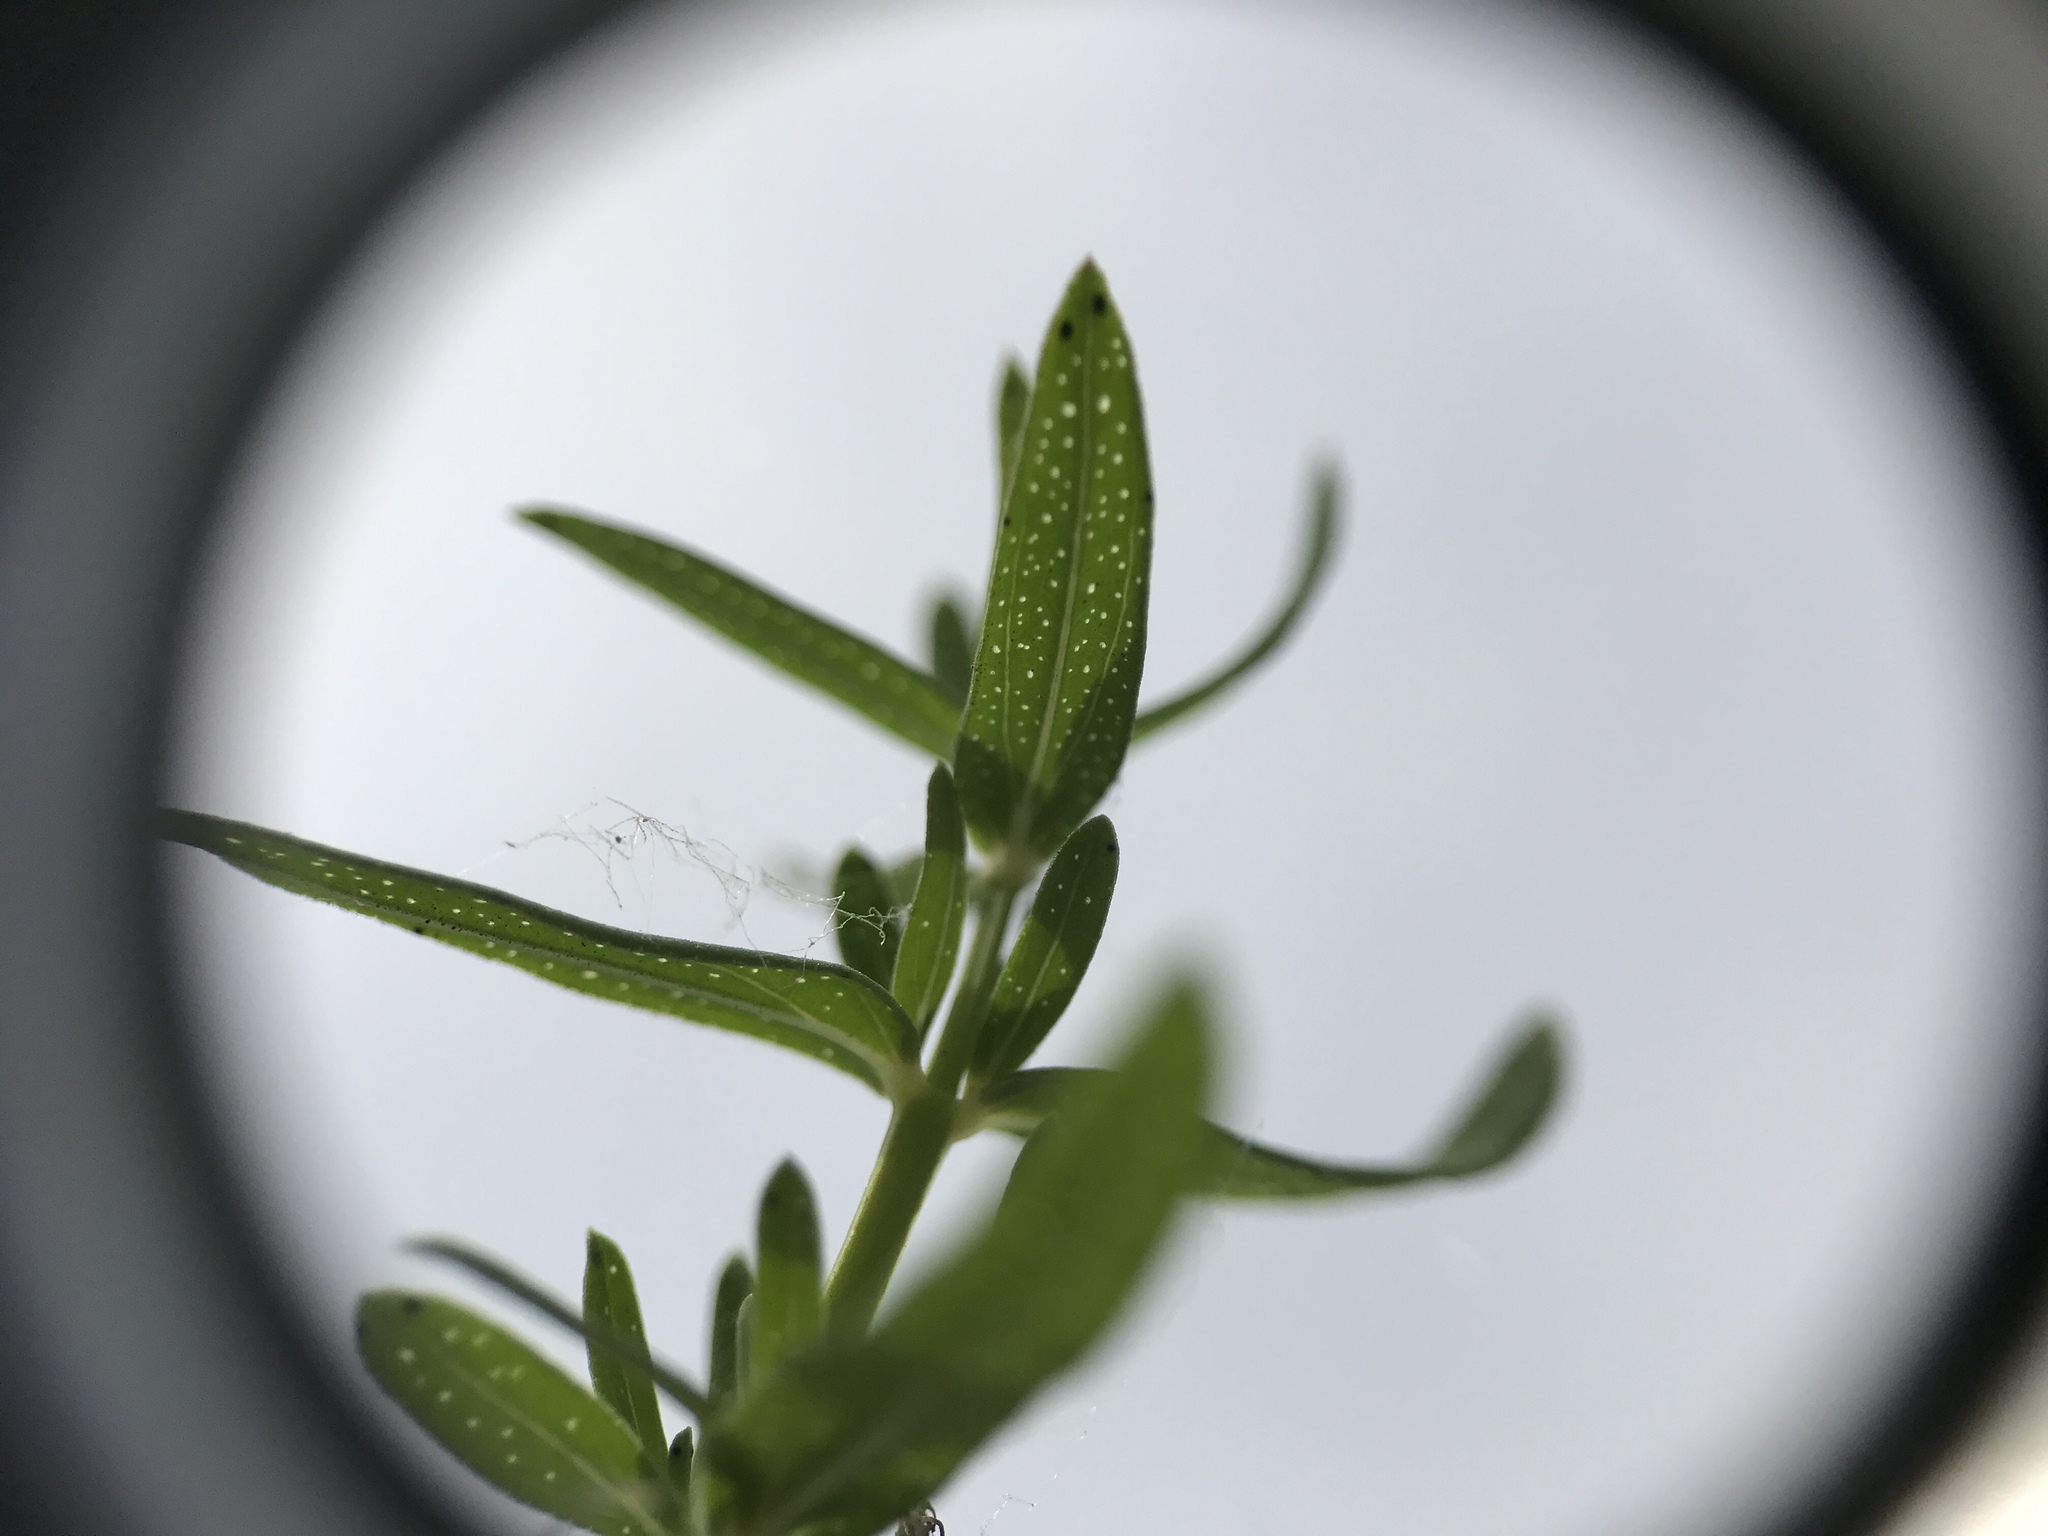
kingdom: Plantae
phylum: Tracheophyta
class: Magnoliopsida
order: Malpighiales
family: Hypericaceae
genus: Hypericum
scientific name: Hypericum perforatum
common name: Common st. johnswort
